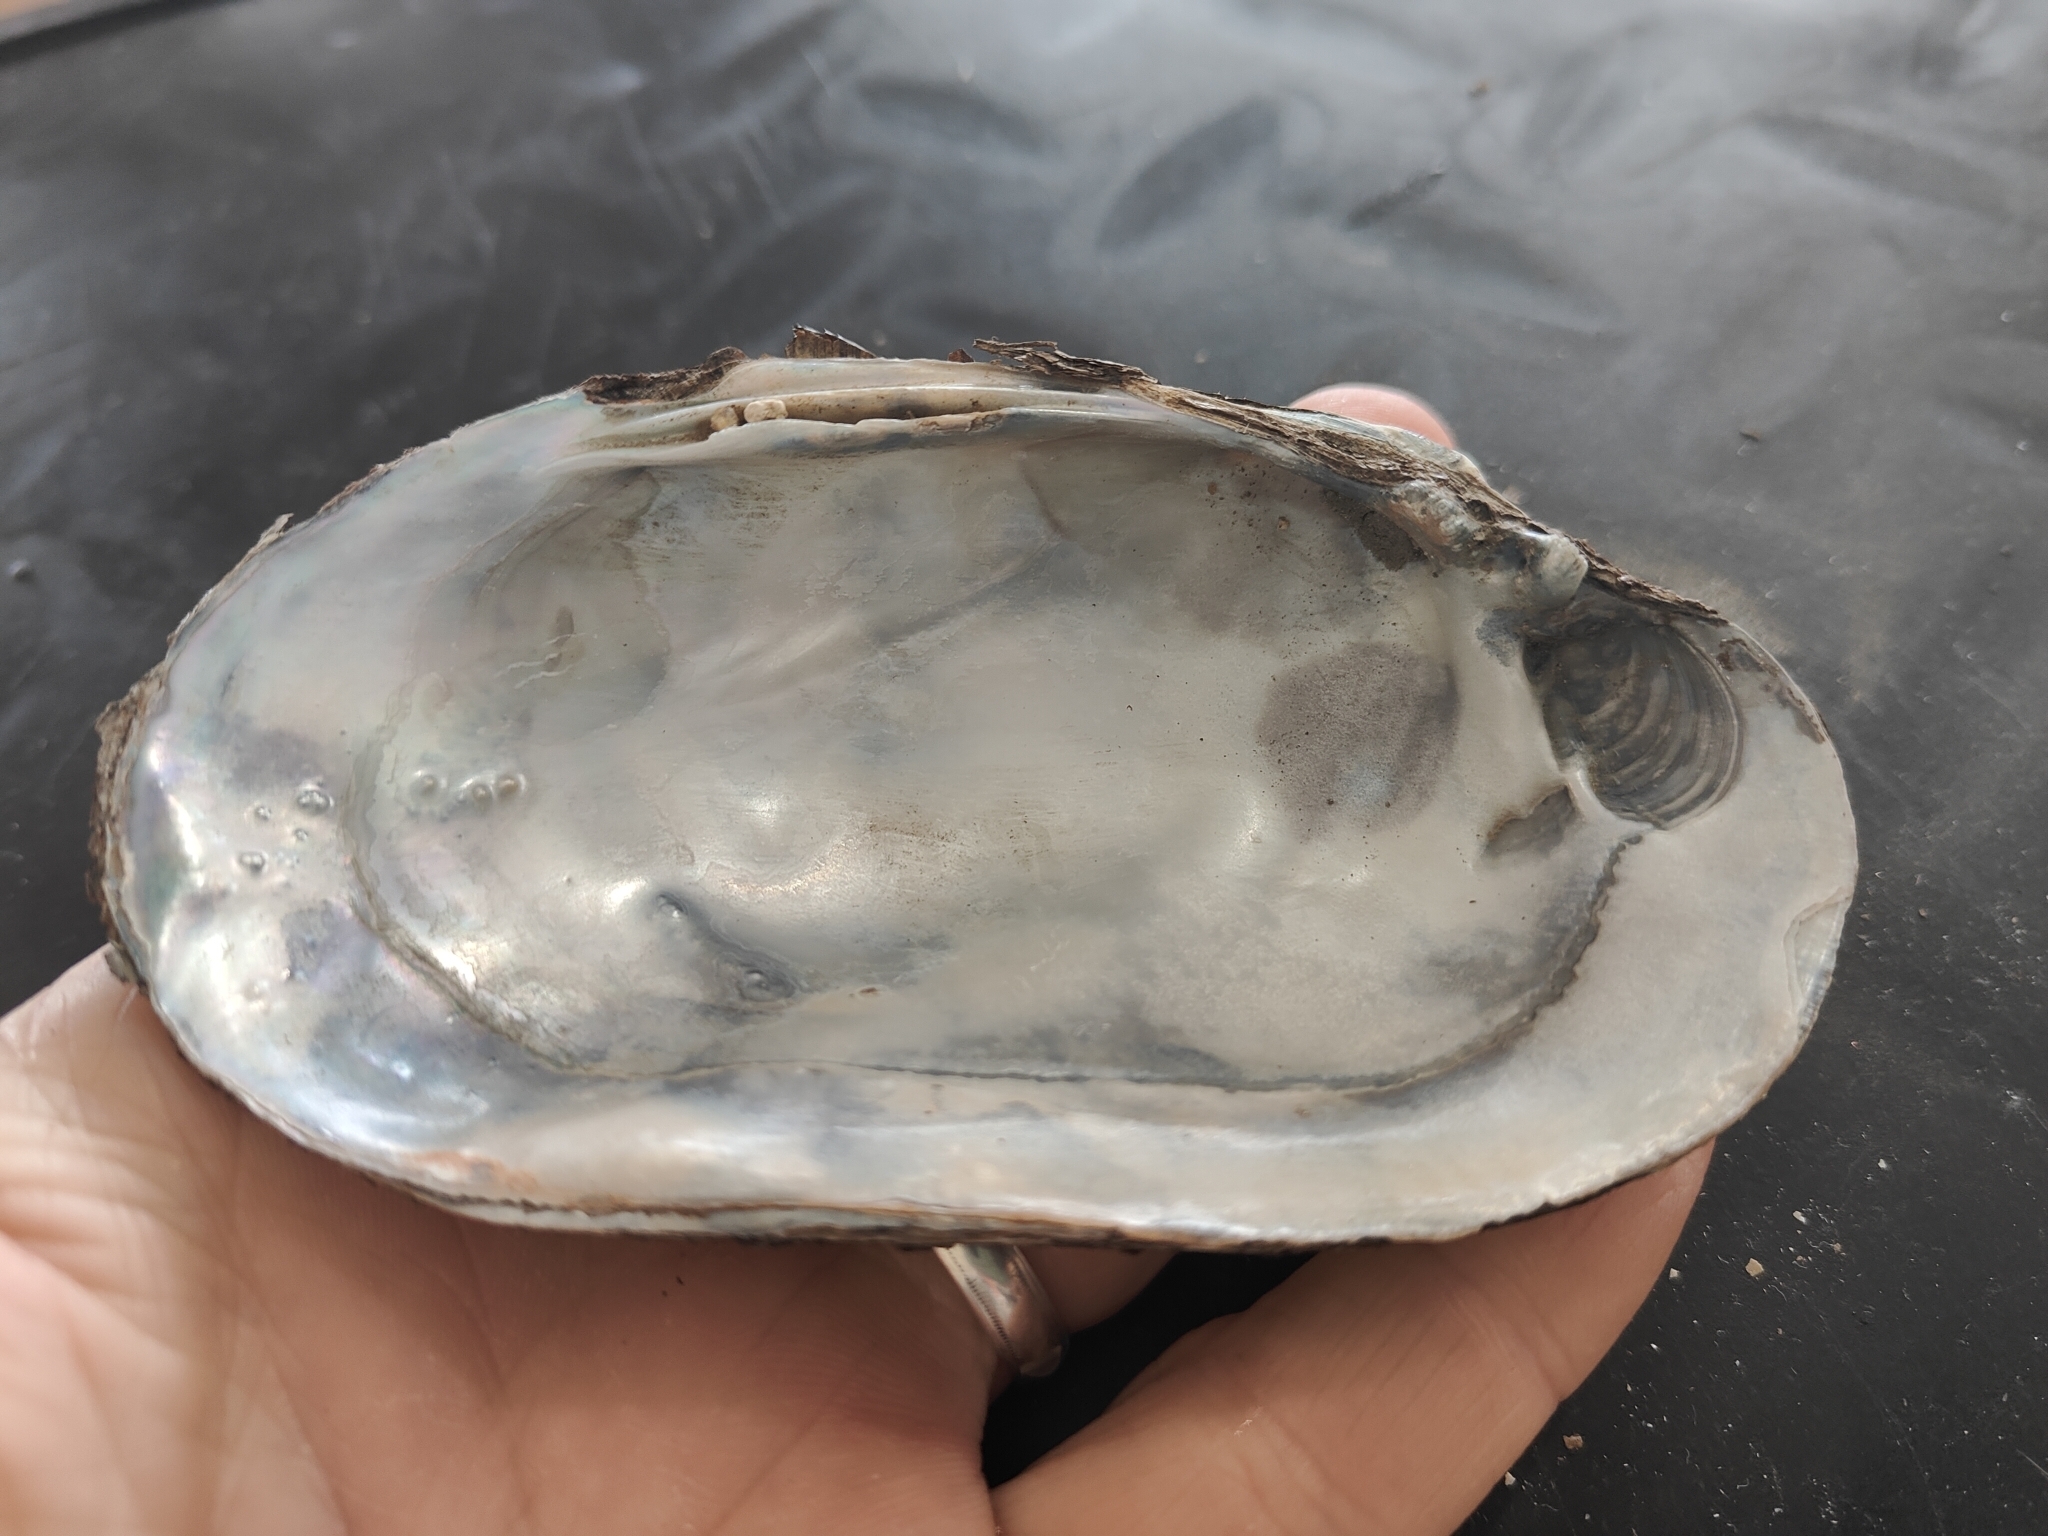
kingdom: Animalia
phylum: Mollusca
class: Bivalvia
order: Unionida
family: Unionidae
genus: Lampsilis
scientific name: Lampsilis siliquoidea
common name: Fatmucket
